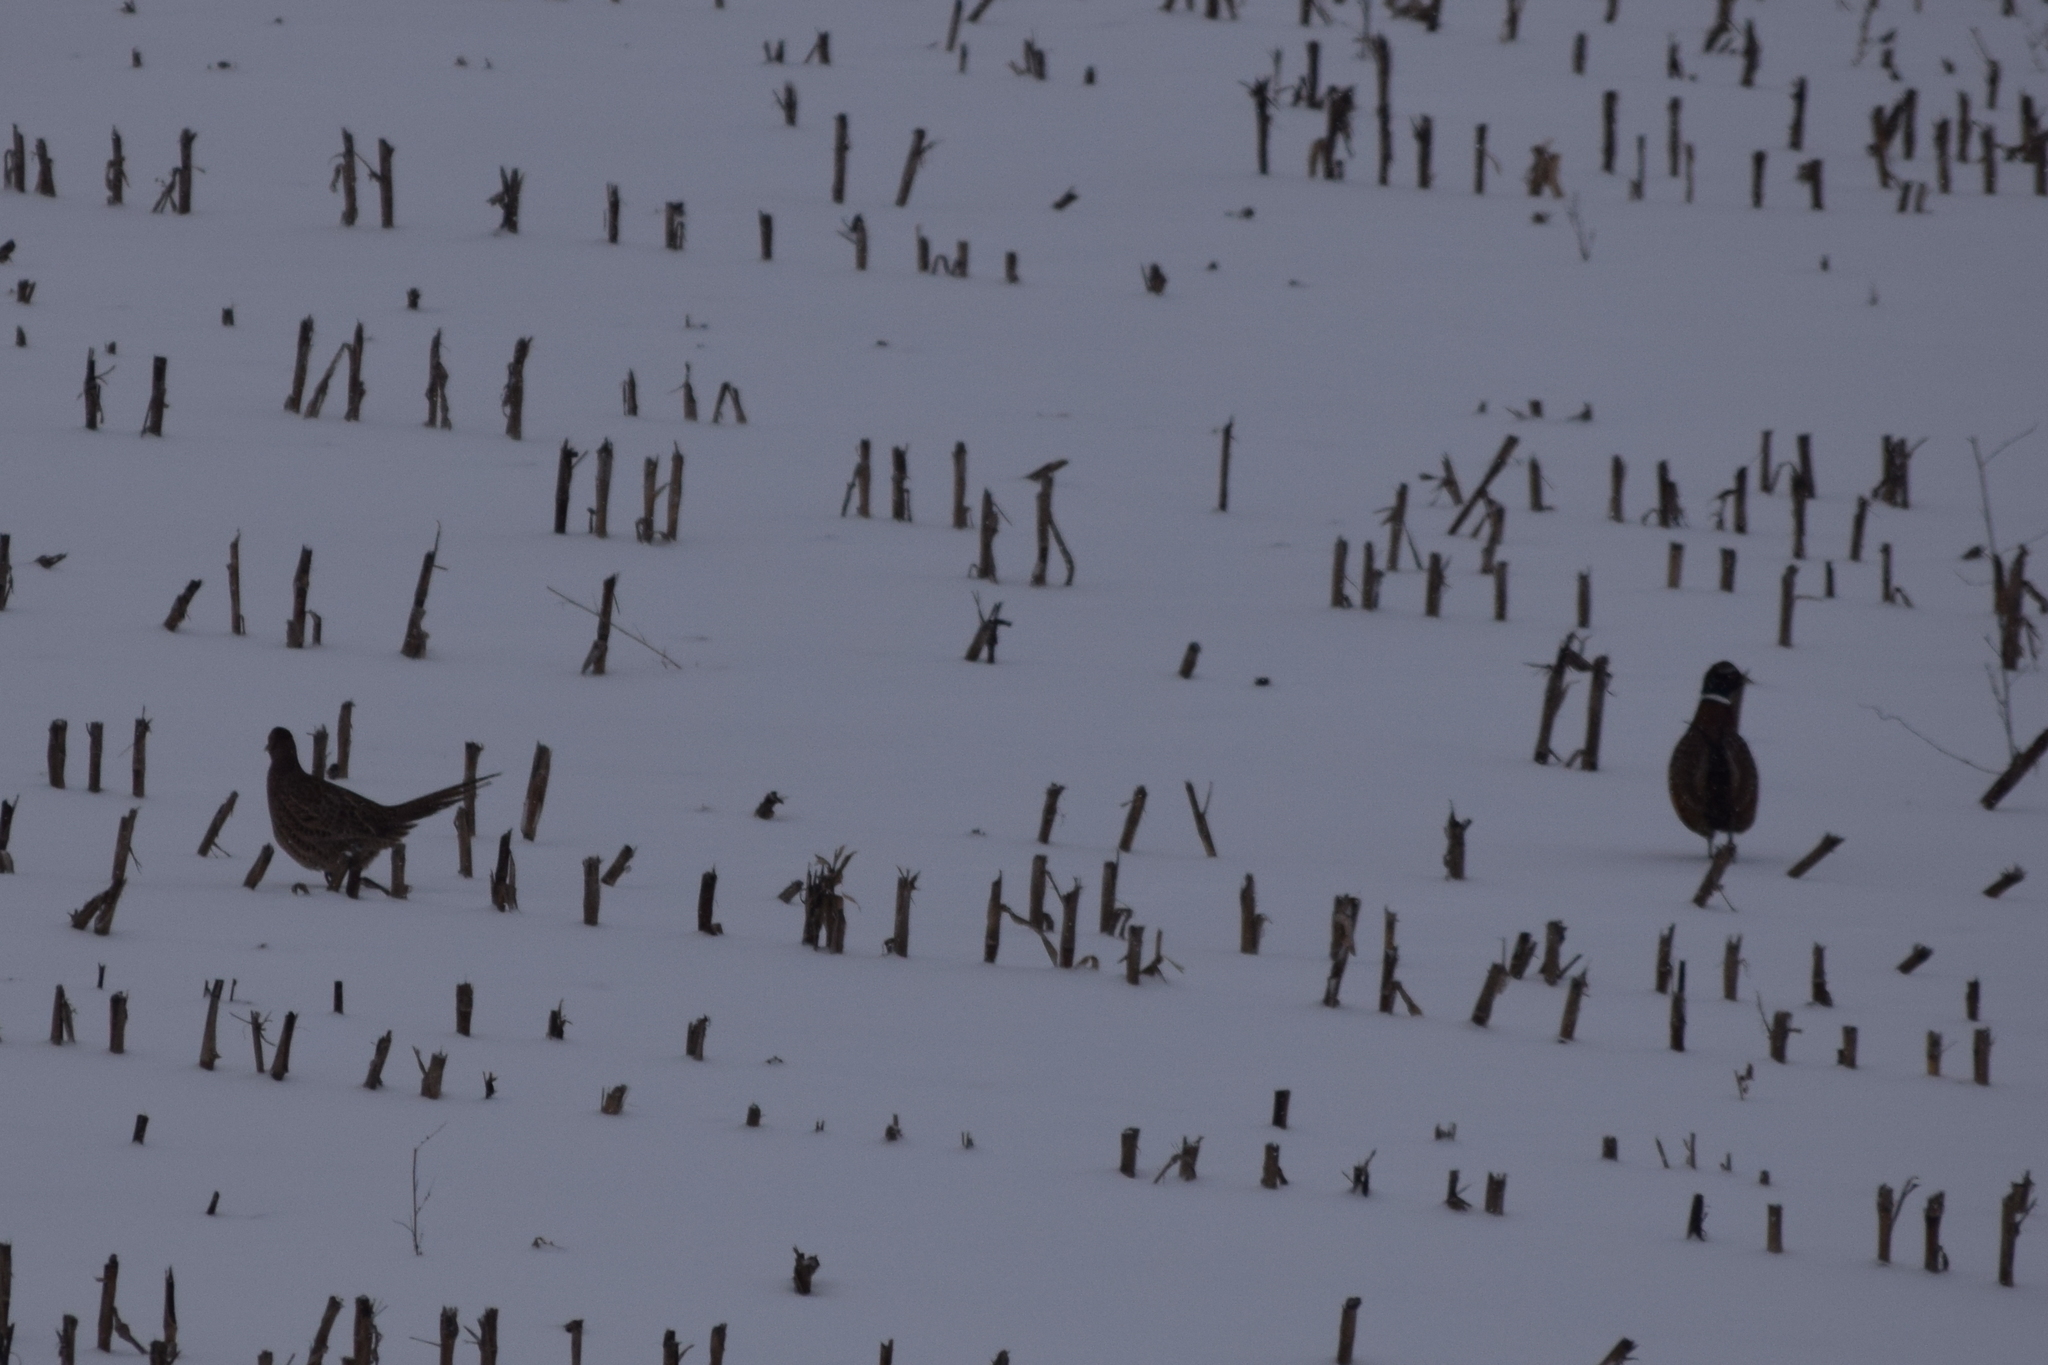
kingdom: Animalia
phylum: Chordata
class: Aves
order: Galliformes
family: Phasianidae
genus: Phasianus
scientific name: Phasianus colchicus
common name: Common pheasant
